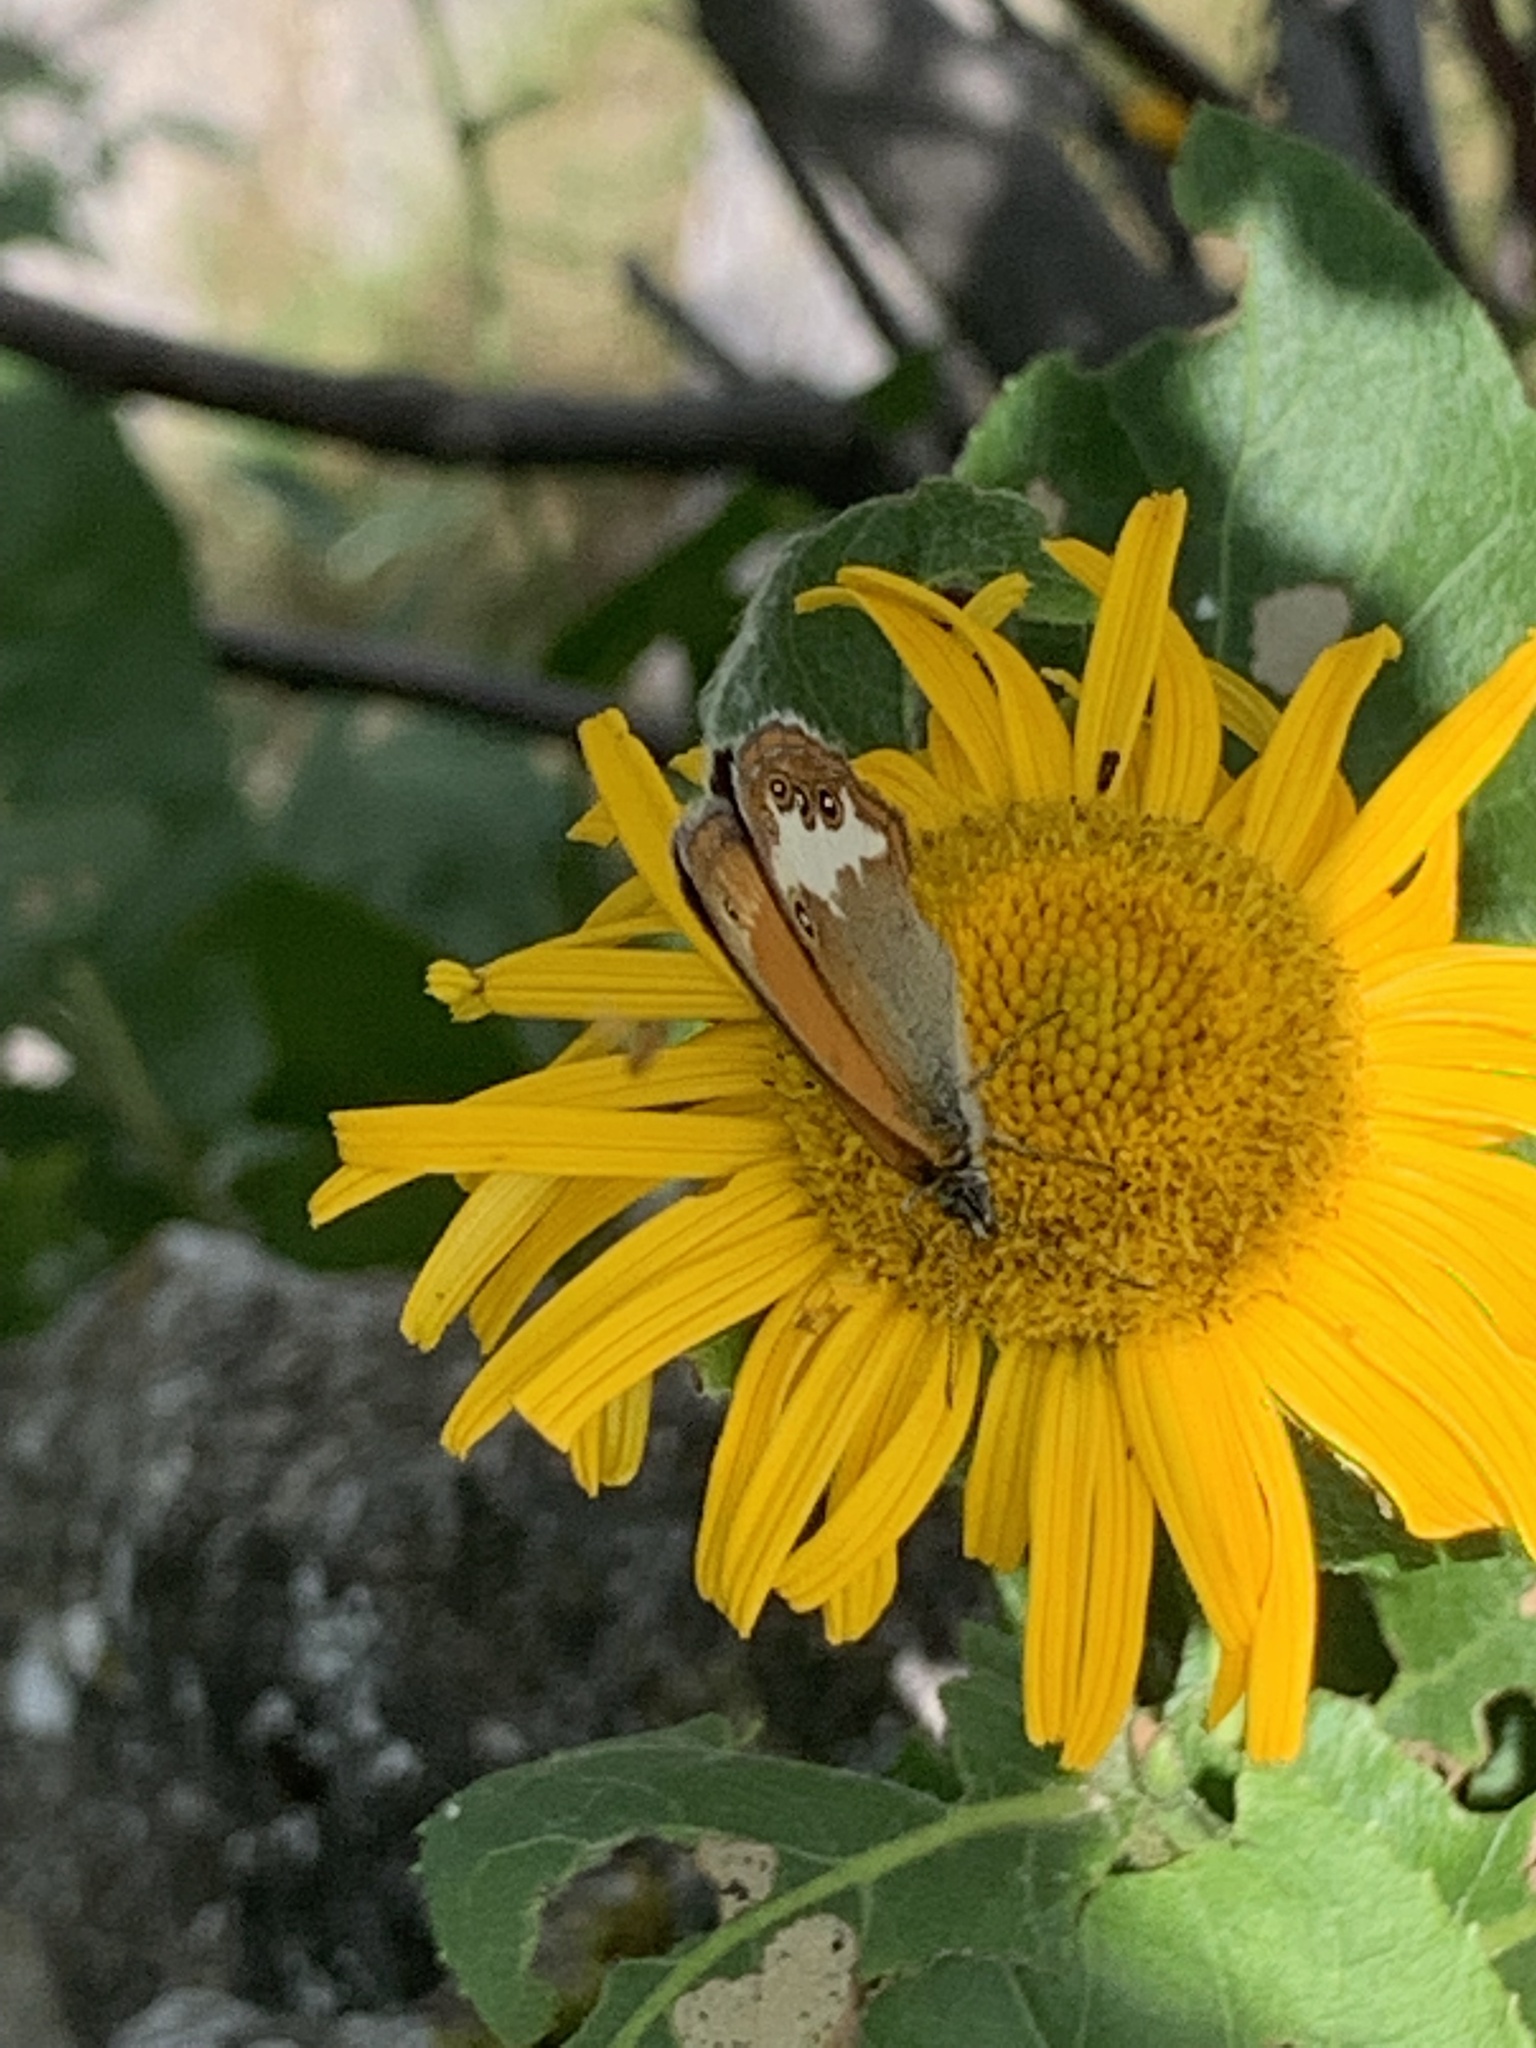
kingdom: Animalia
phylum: Arthropoda
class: Insecta
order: Lepidoptera
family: Nymphalidae
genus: Coenonympha
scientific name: Coenonympha arcania
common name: Pearly heath
